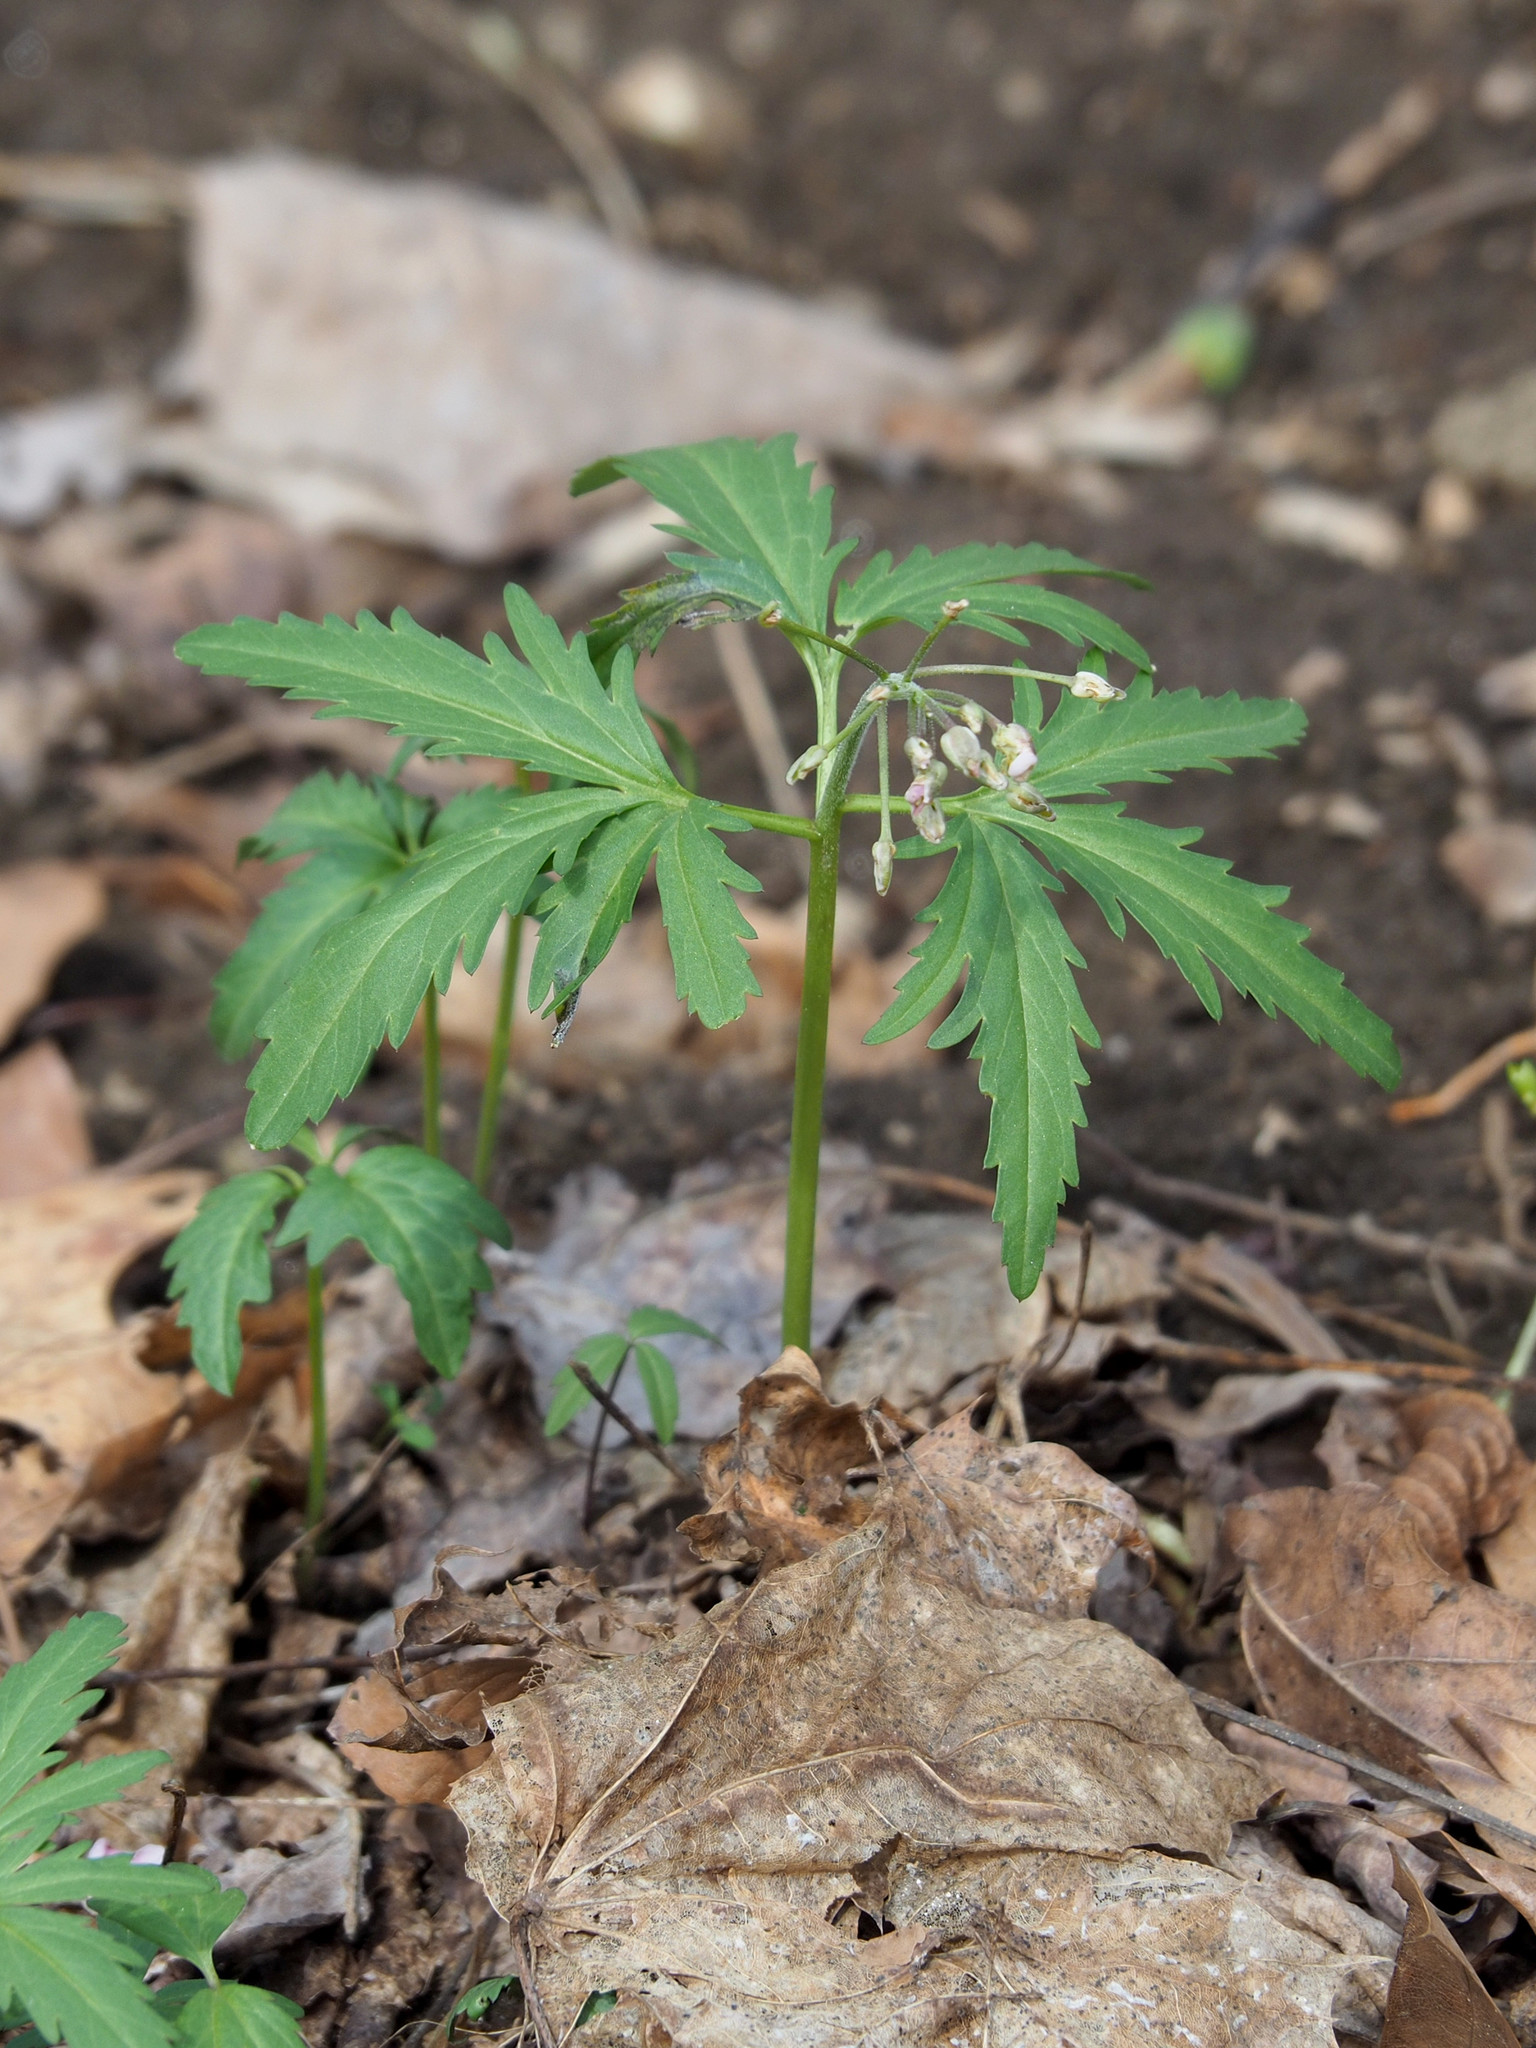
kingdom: Plantae
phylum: Tracheophyta
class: Magnoliopsida
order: Brassicales
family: Brassicaceae
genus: Cardamine
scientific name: Cardamine concatenata
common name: Cut-leaf toothcup
